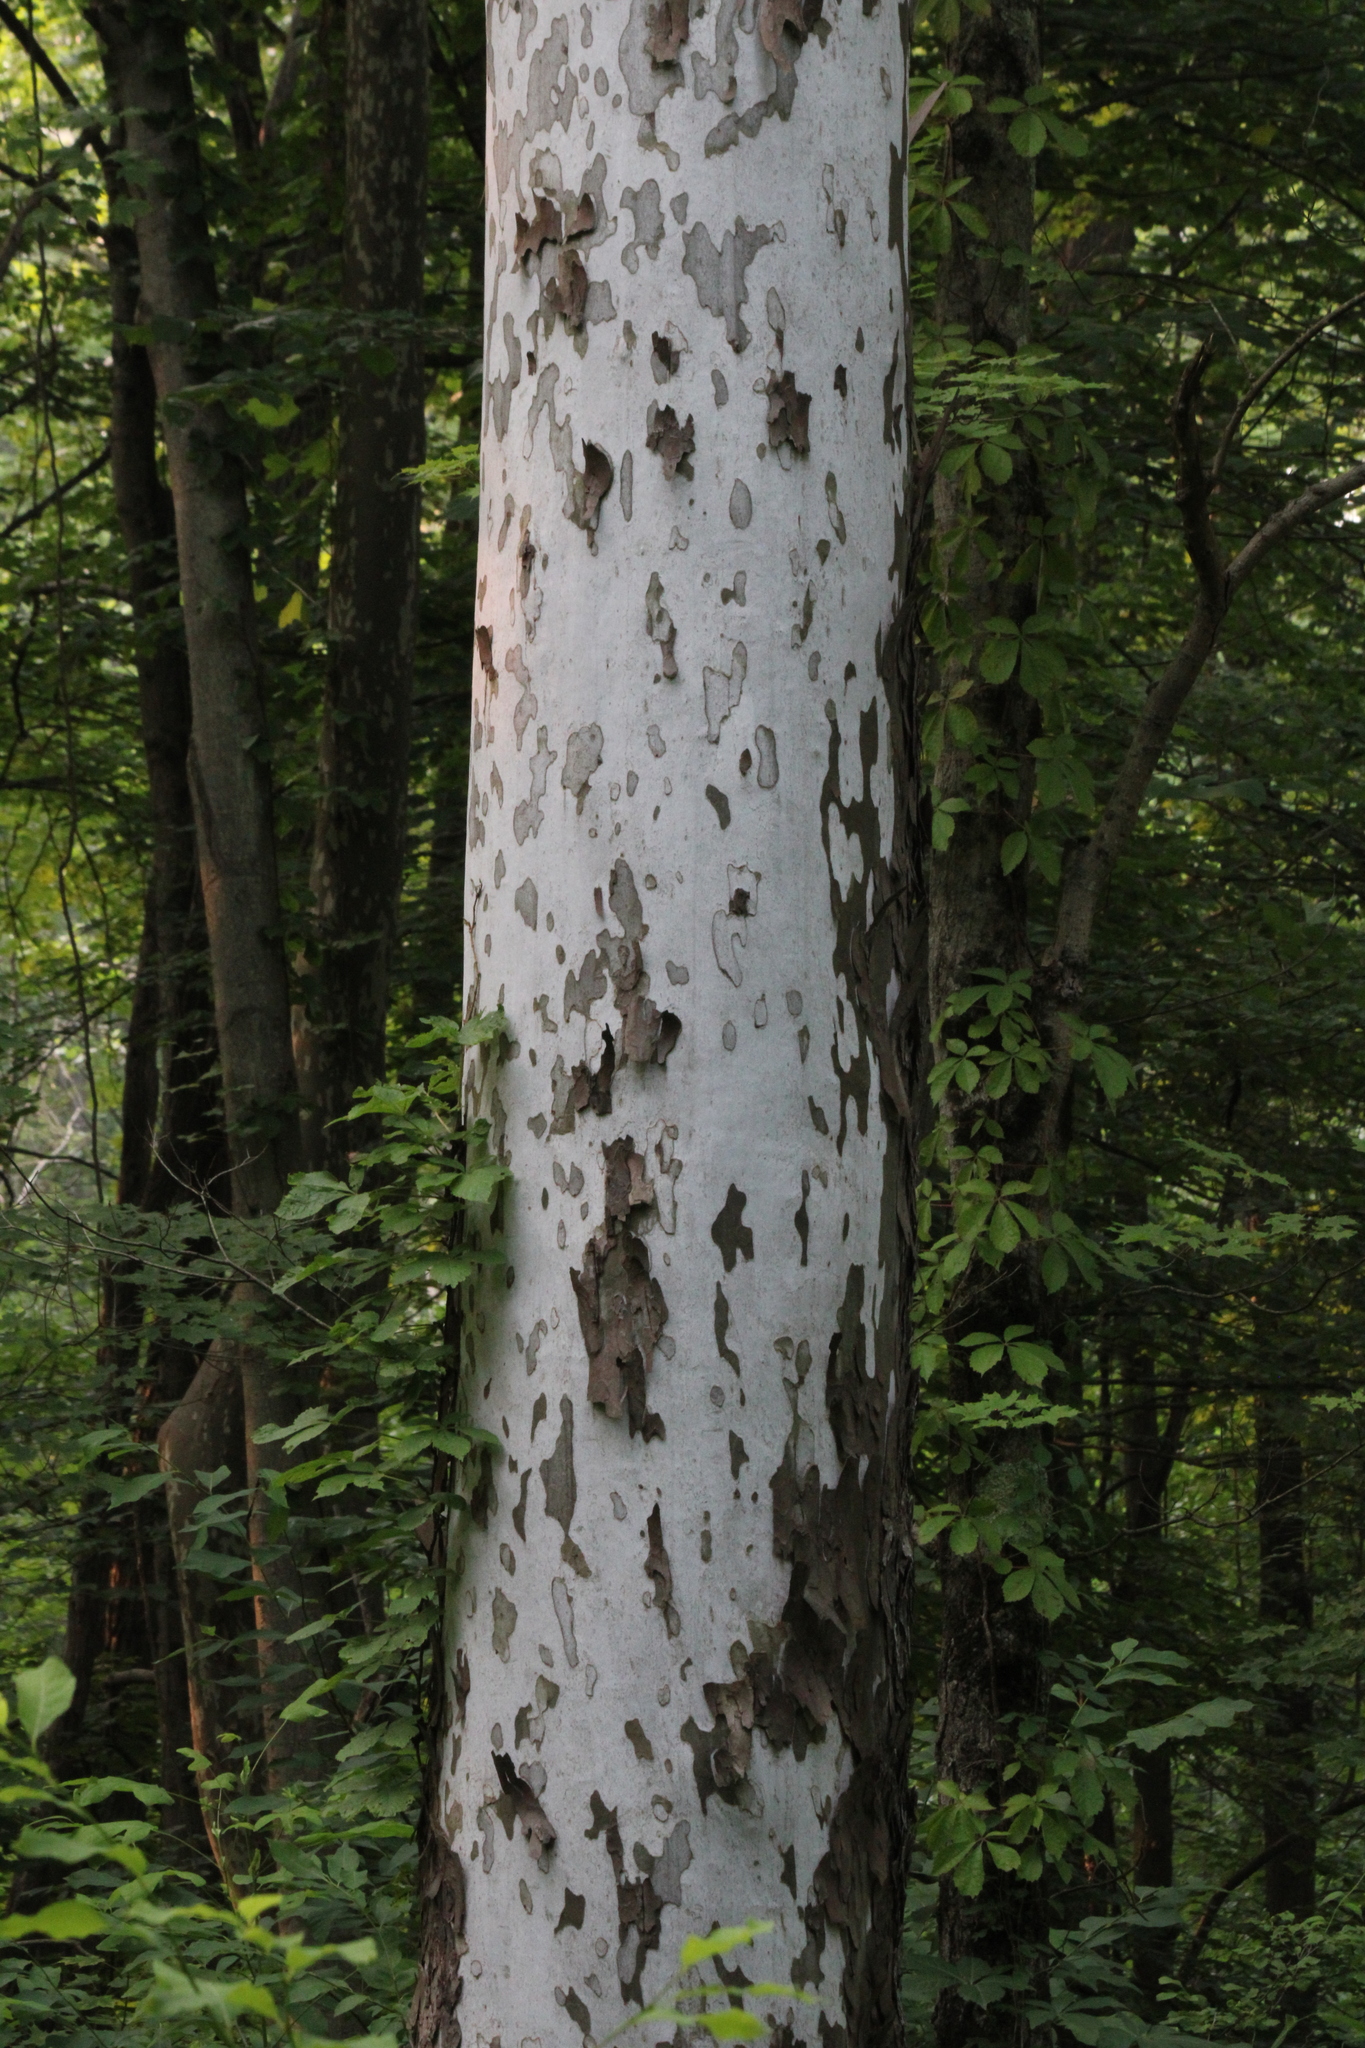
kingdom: Plantae
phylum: Tracheophyta
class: Magnoliopsida
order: Proteales
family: Platanaceae
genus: Platanus
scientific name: Platanus occidentalis
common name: American sycamore
